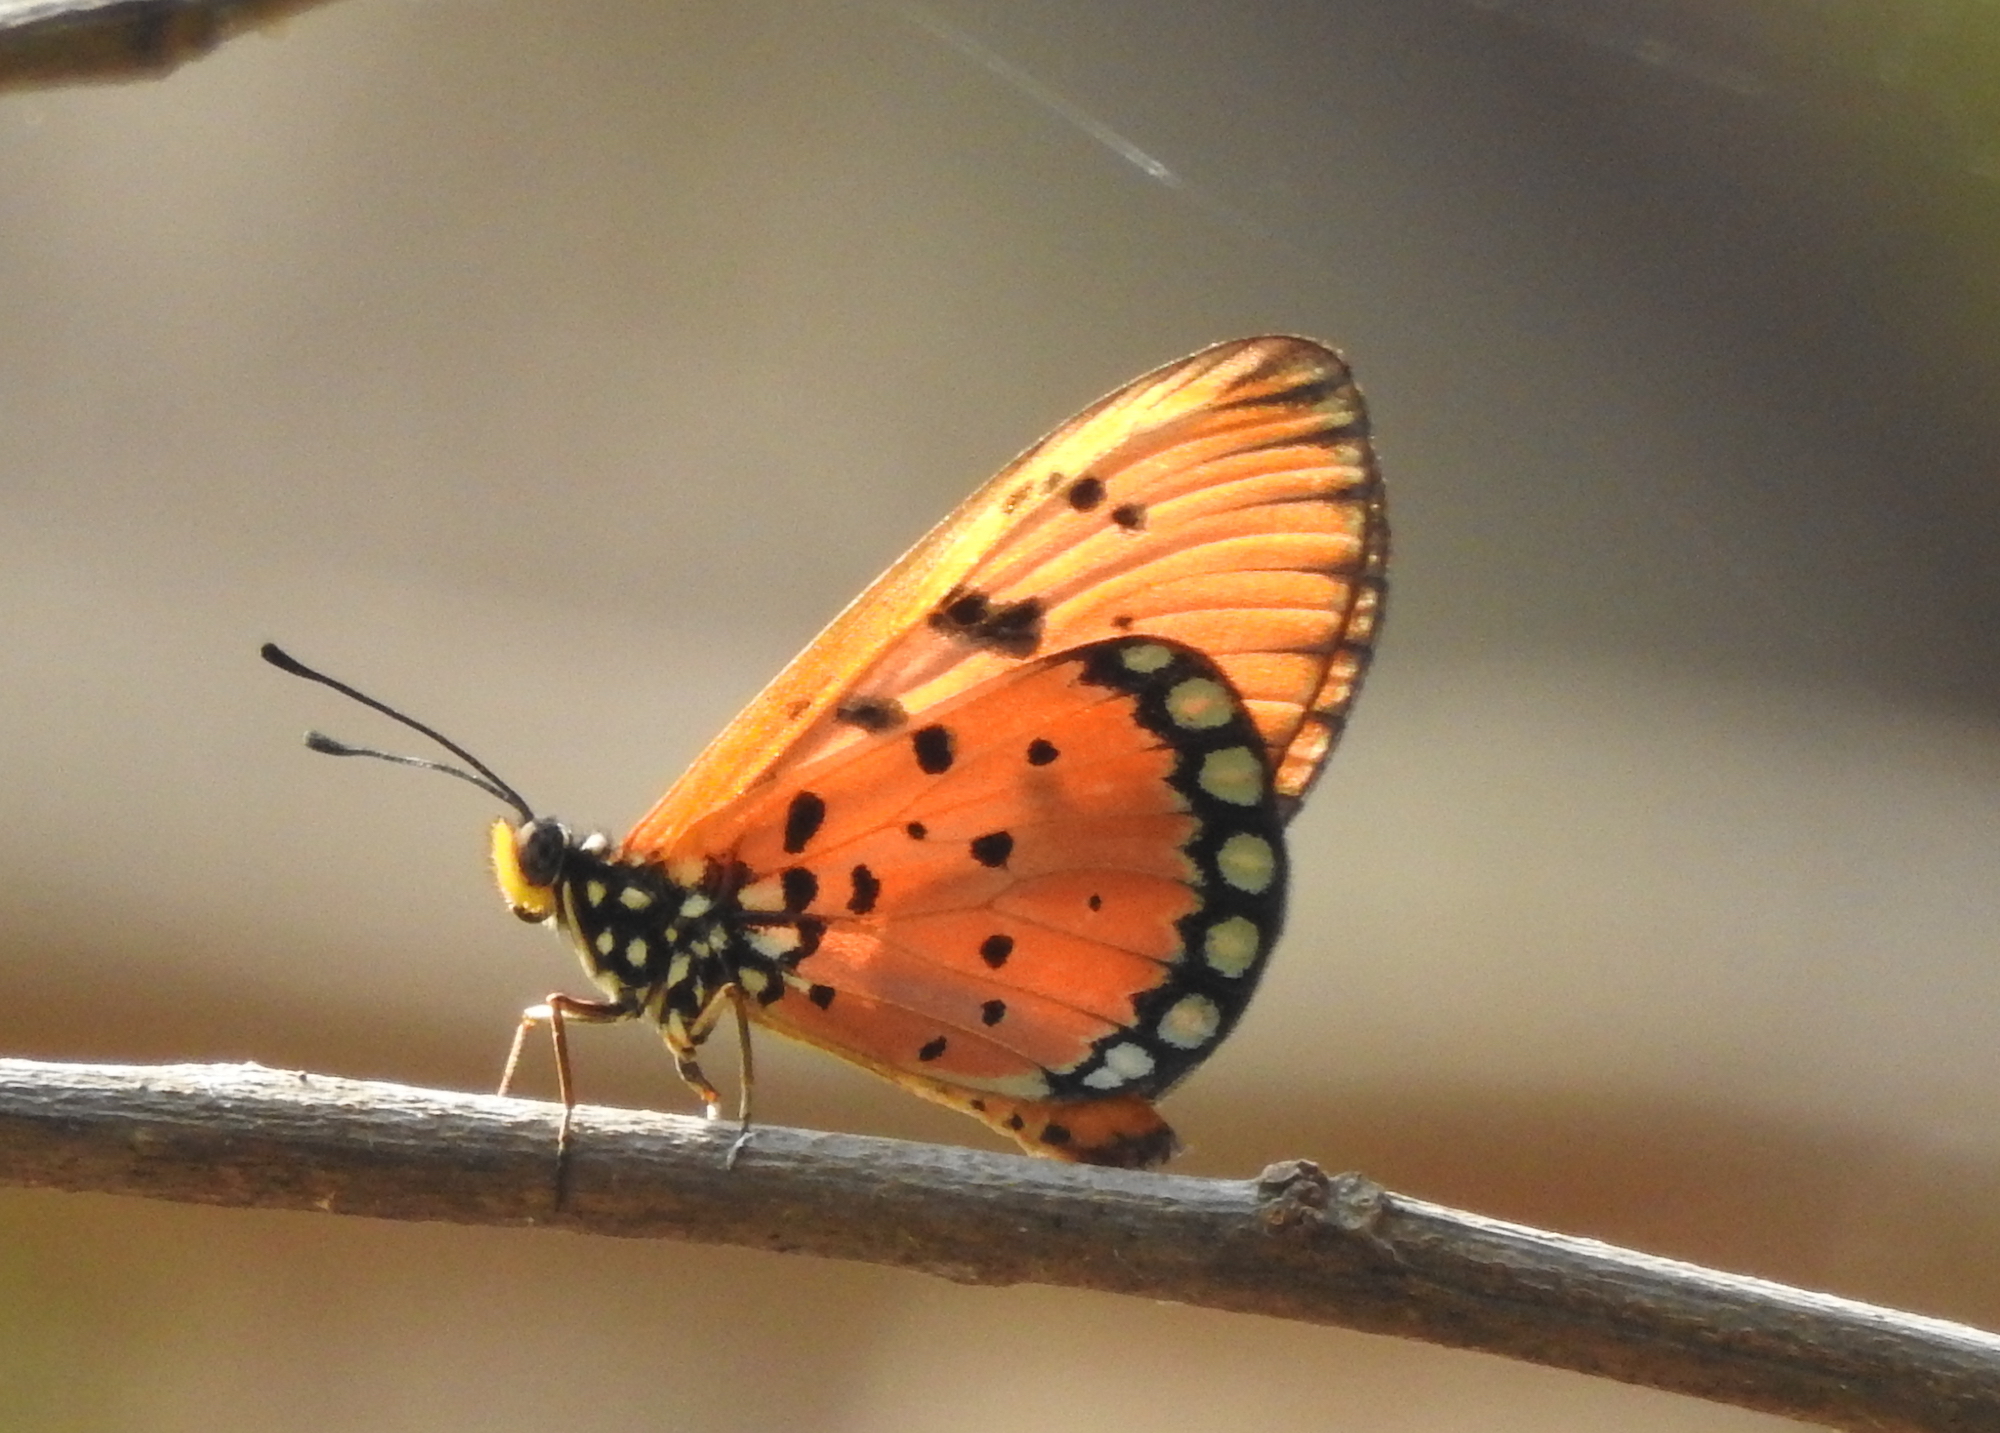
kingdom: Animalia
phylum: Arthropoda
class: Insecta
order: Lepidoptera
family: Nymphalidae
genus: Acraea
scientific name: Acraea terpsicore
